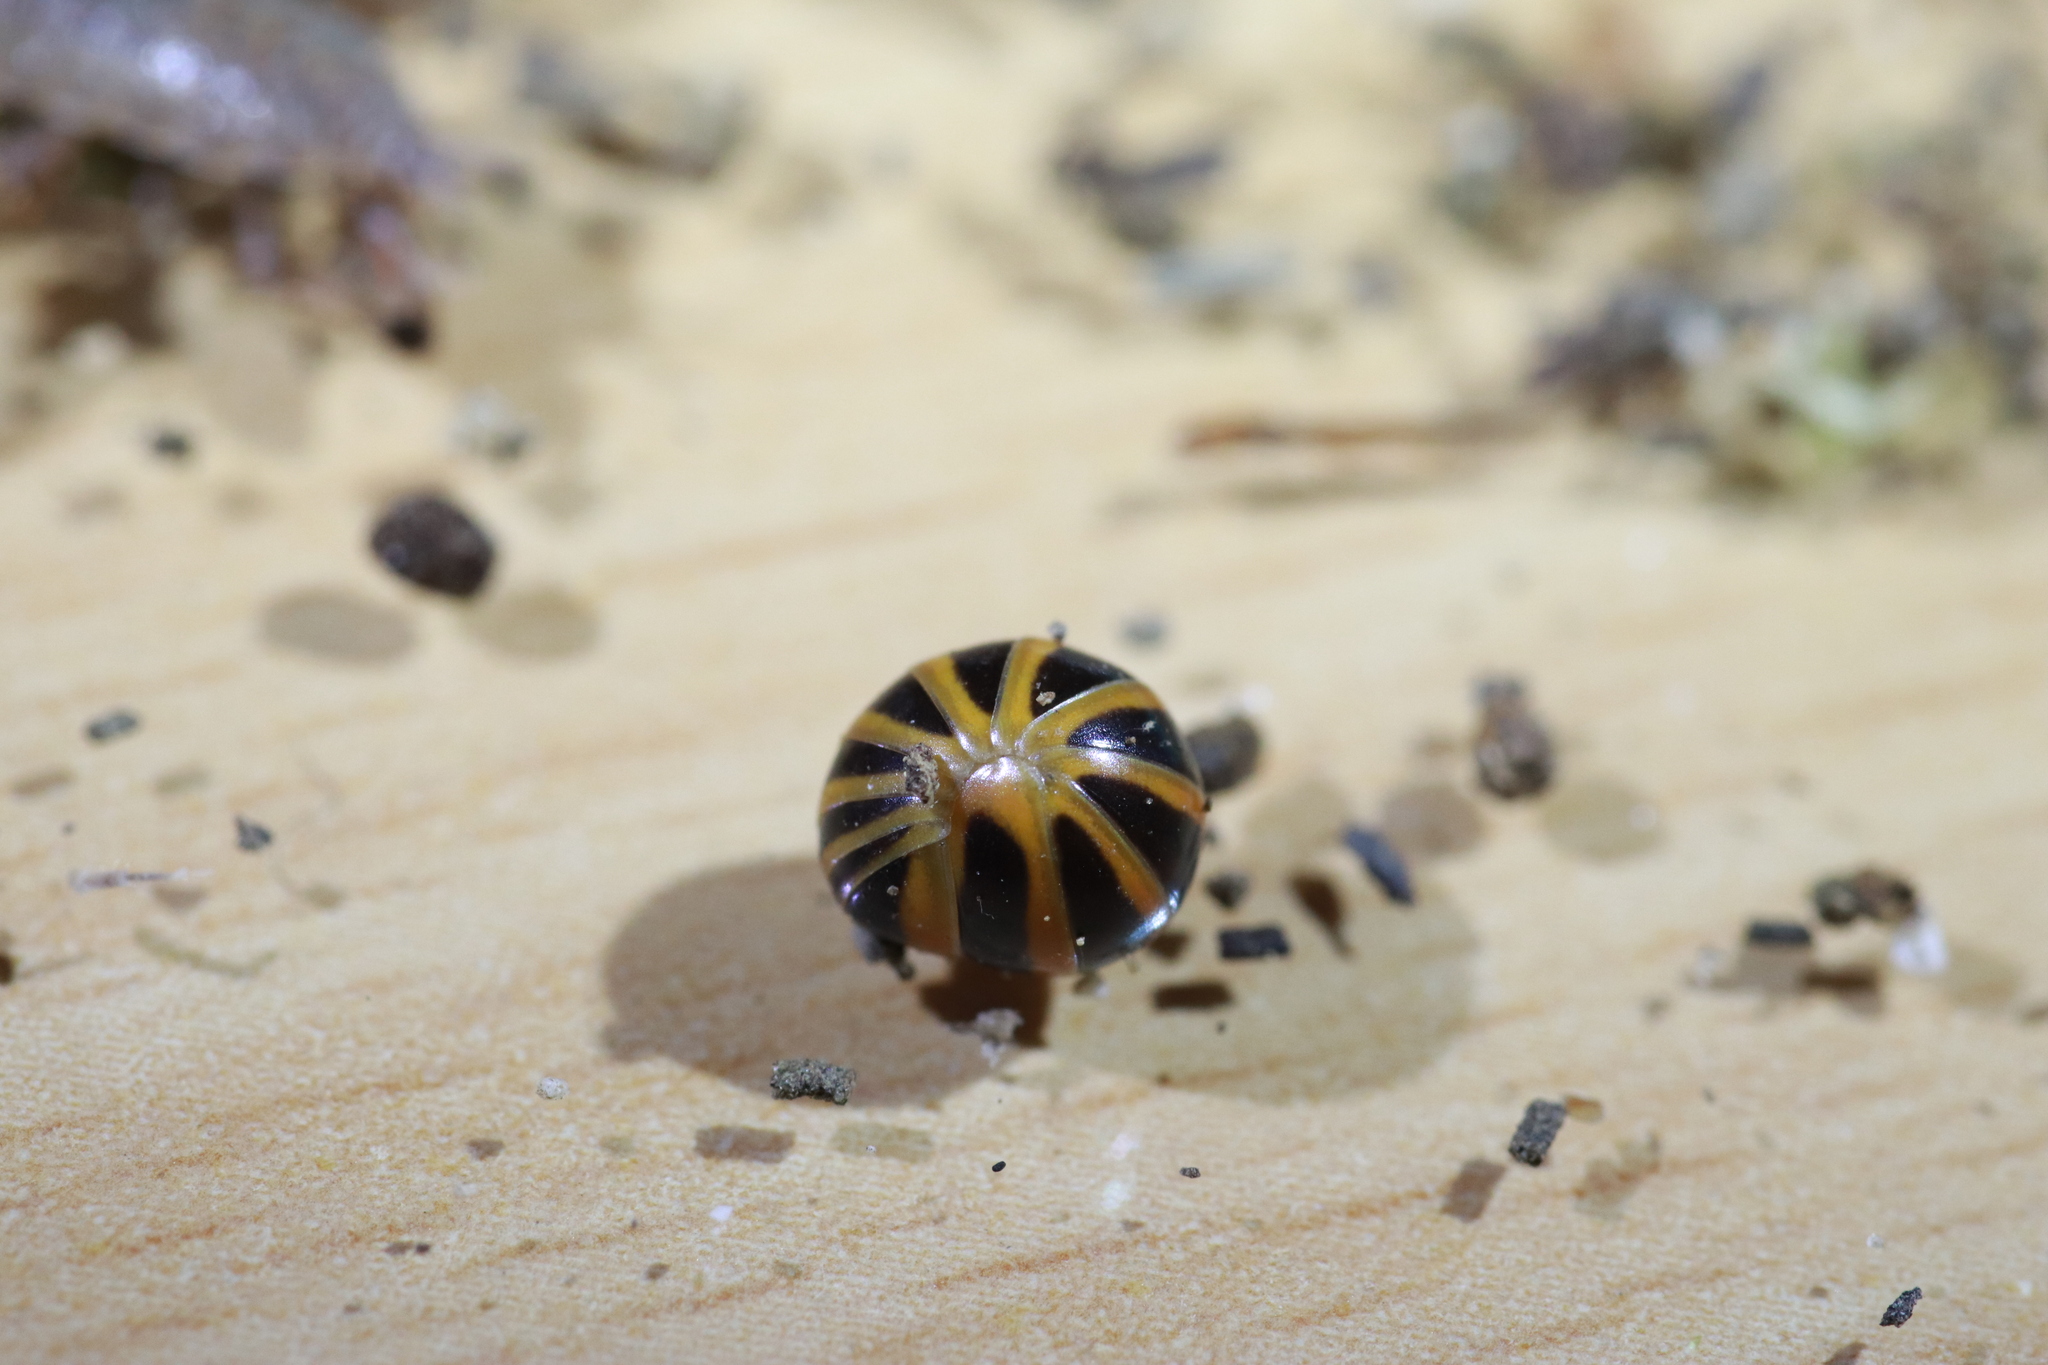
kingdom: Animalia
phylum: Arthropoda
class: Diplopoda
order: Glomerida
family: Glomeridae
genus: Glomeris
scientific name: Glomeris annulata
